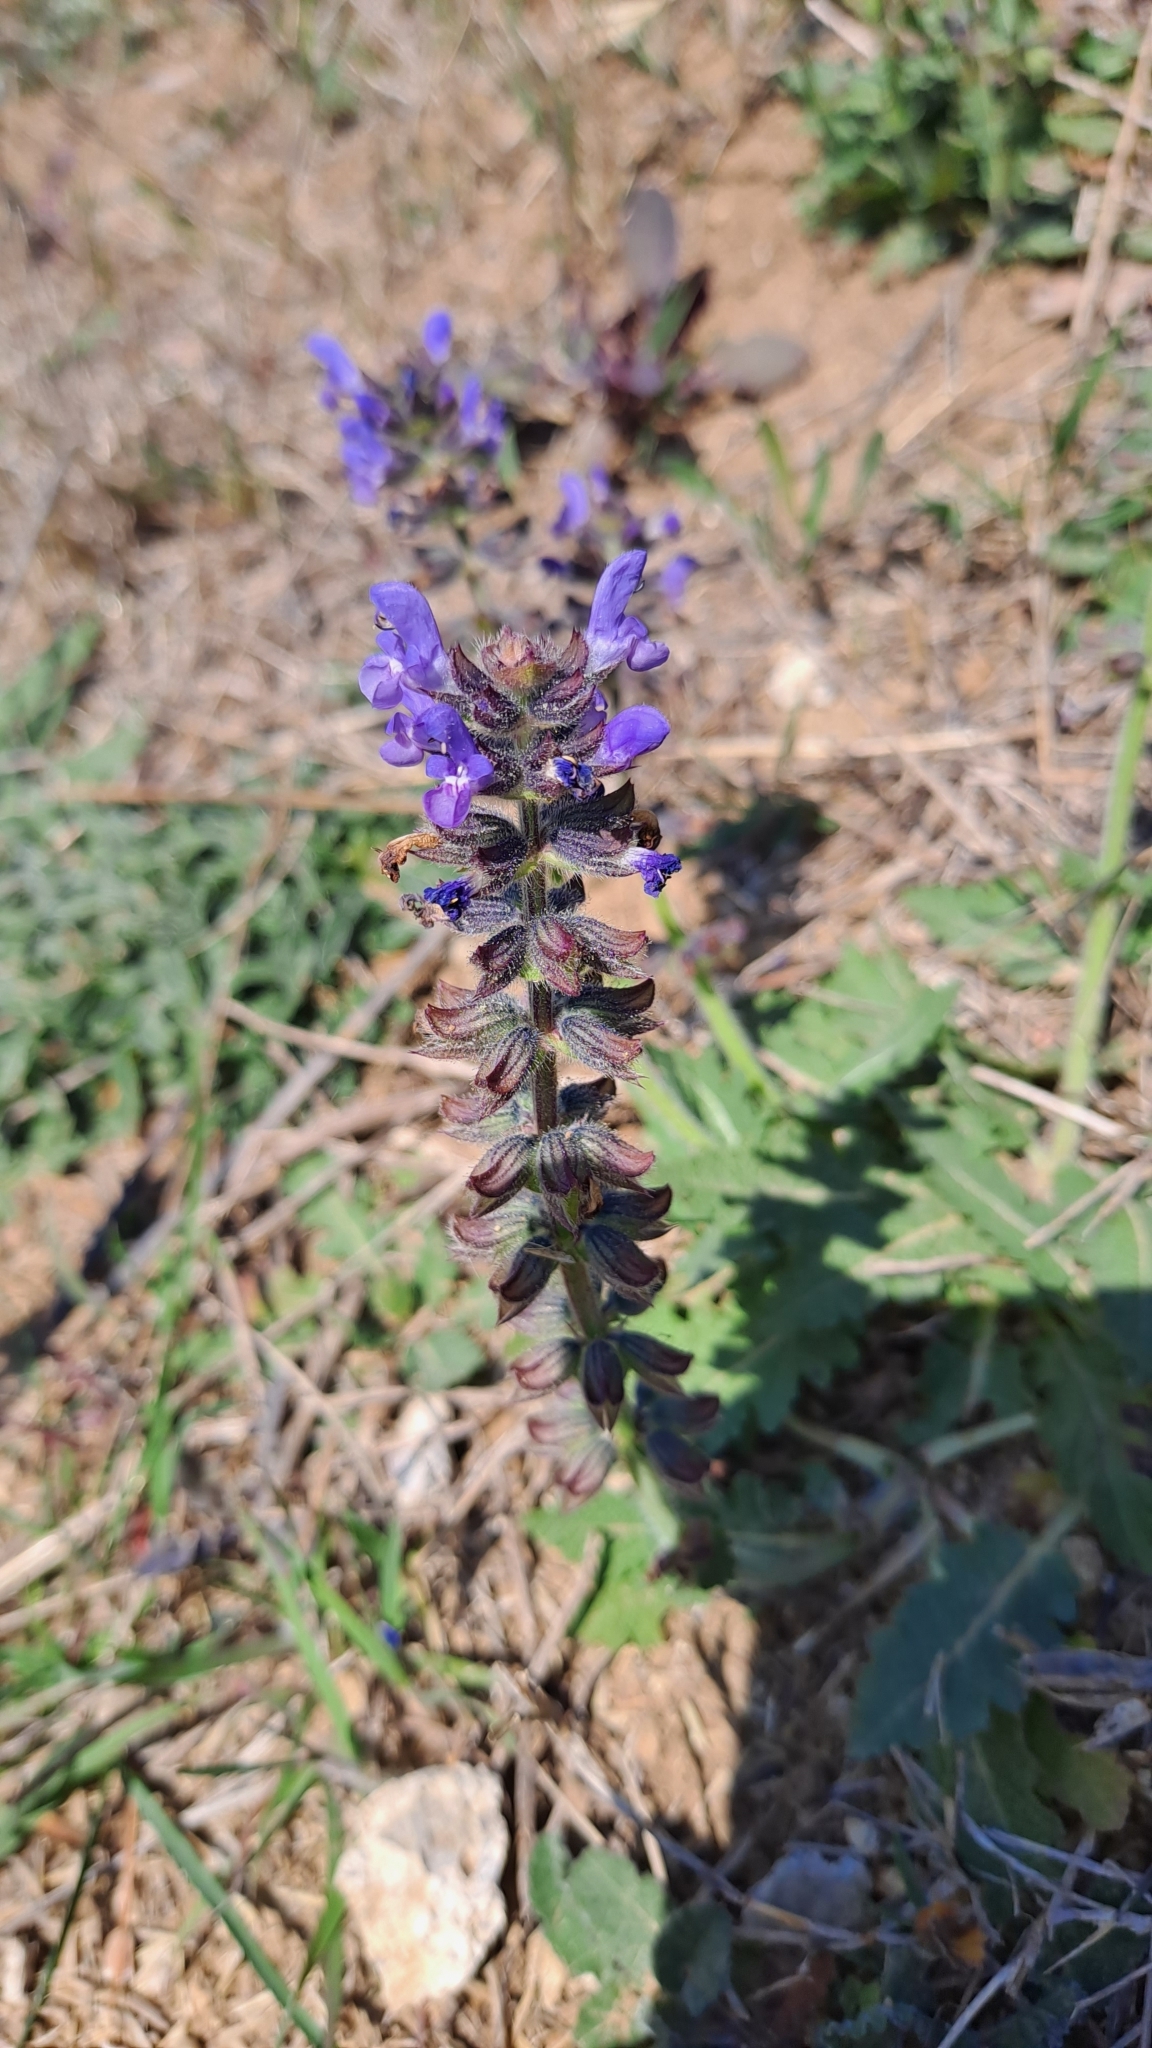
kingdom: Plantae
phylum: Tracheophyta
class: Magnoliopsida
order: Lamiales
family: Lamiaceae
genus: Salvia
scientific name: Salvia verbenaca
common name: Wild clary
